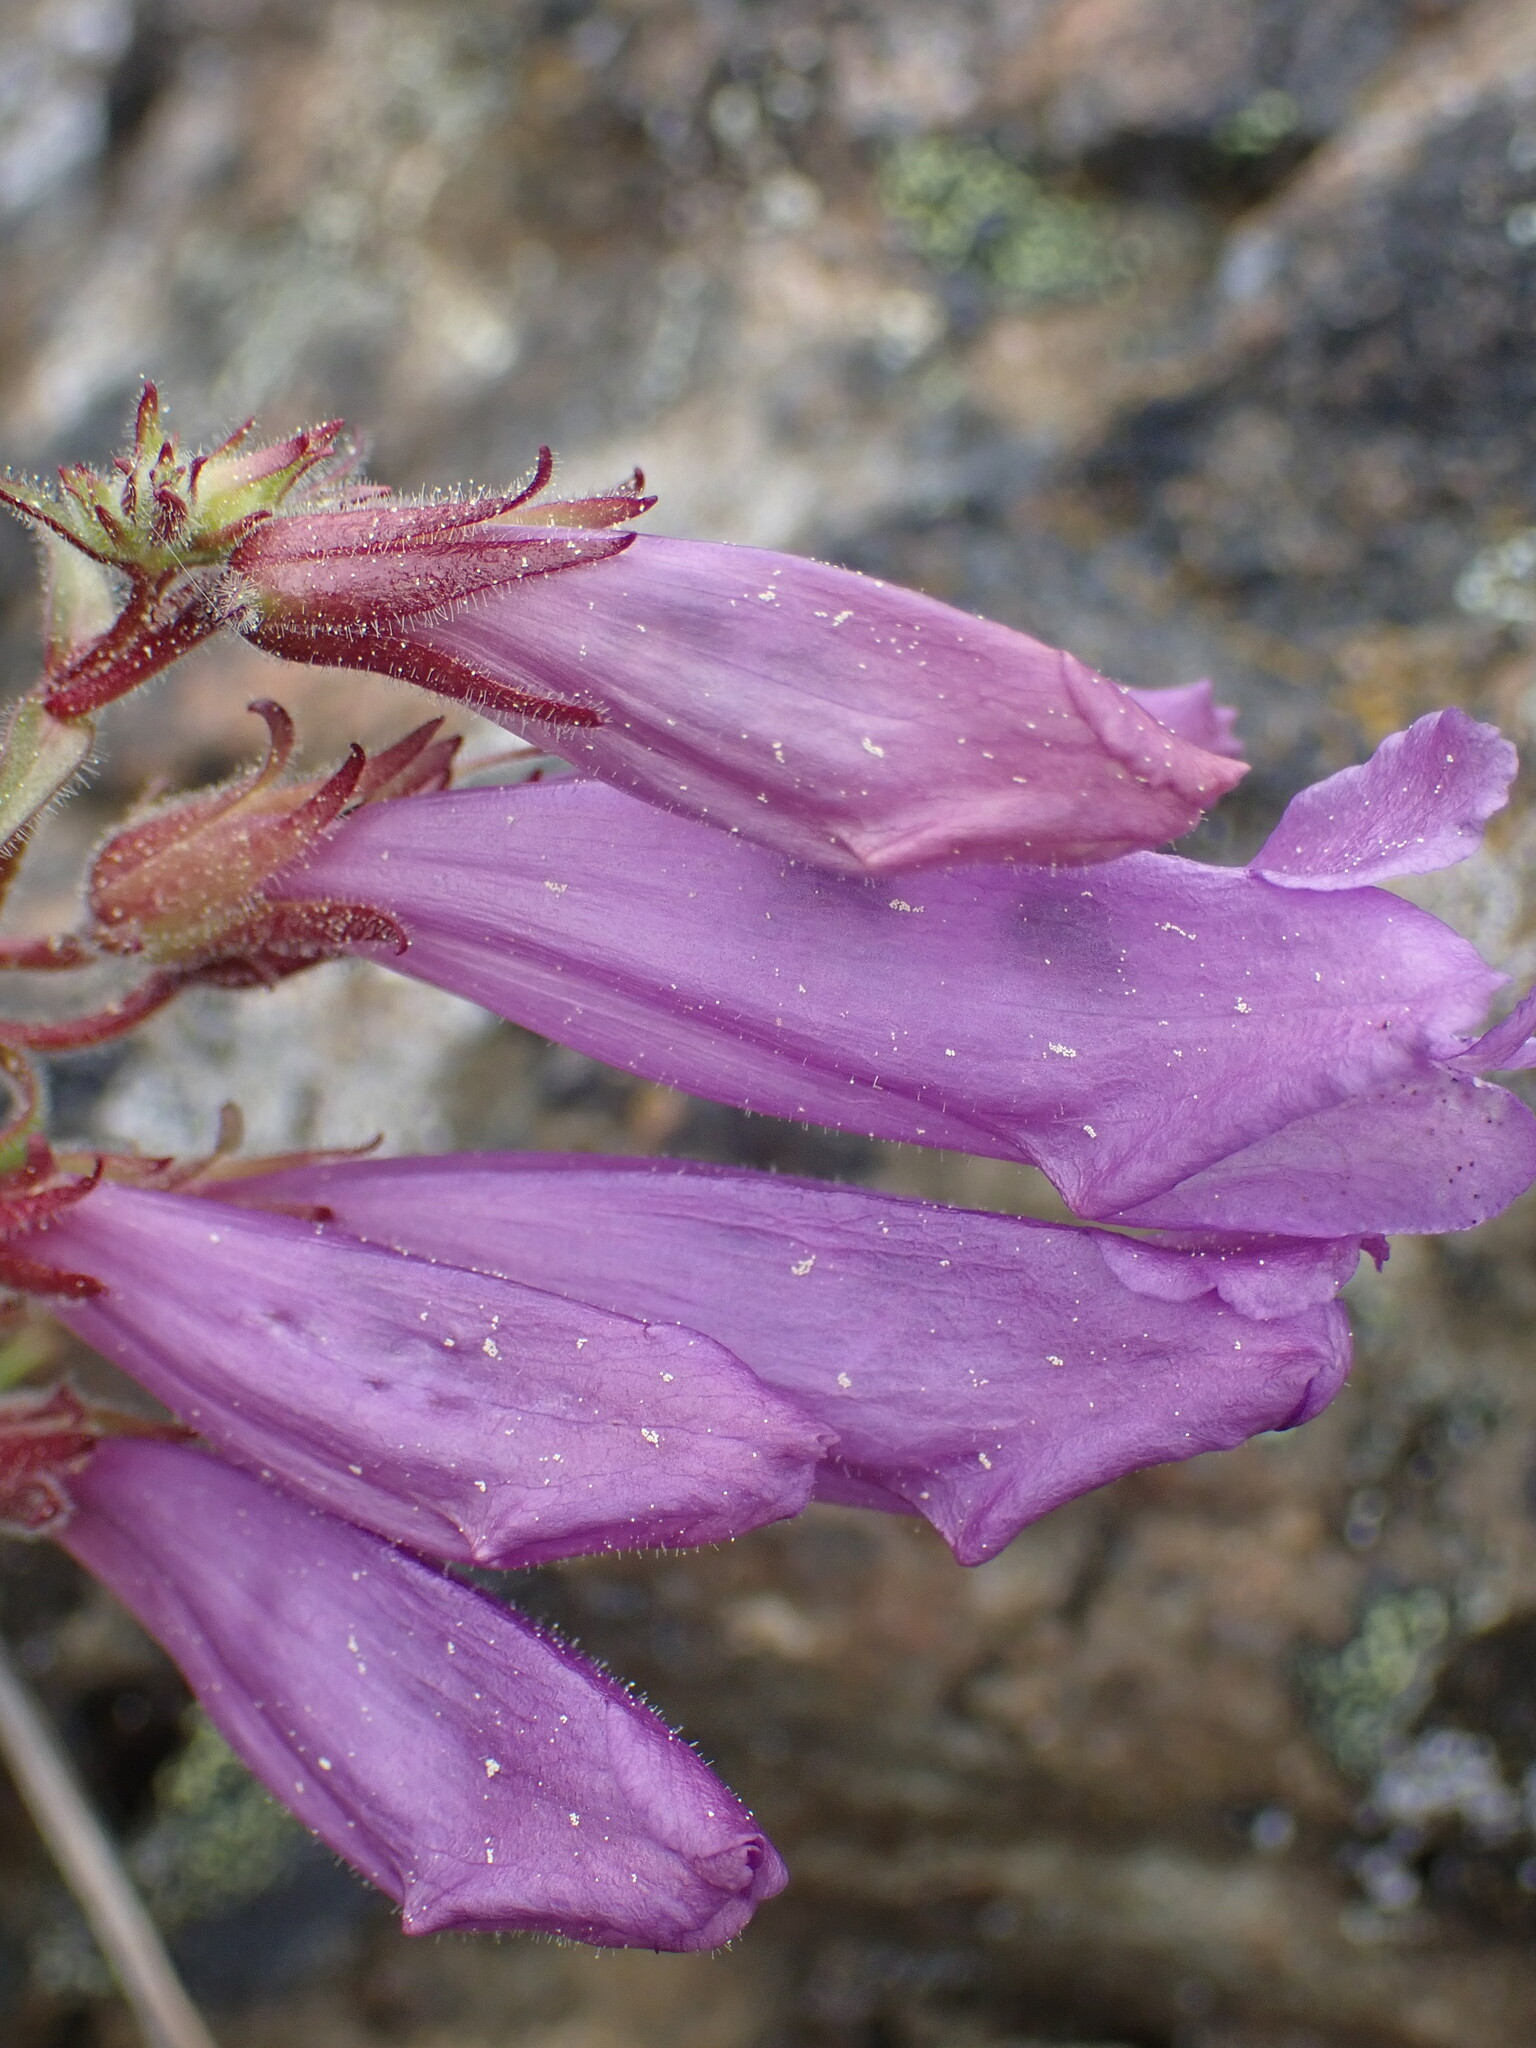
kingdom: Plantae
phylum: Tracheophyta
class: Magnoliopsida
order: Lamiales
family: Plantaginaceae
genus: Penstemon
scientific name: Penstemon fruticosus
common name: Bush penstemon
